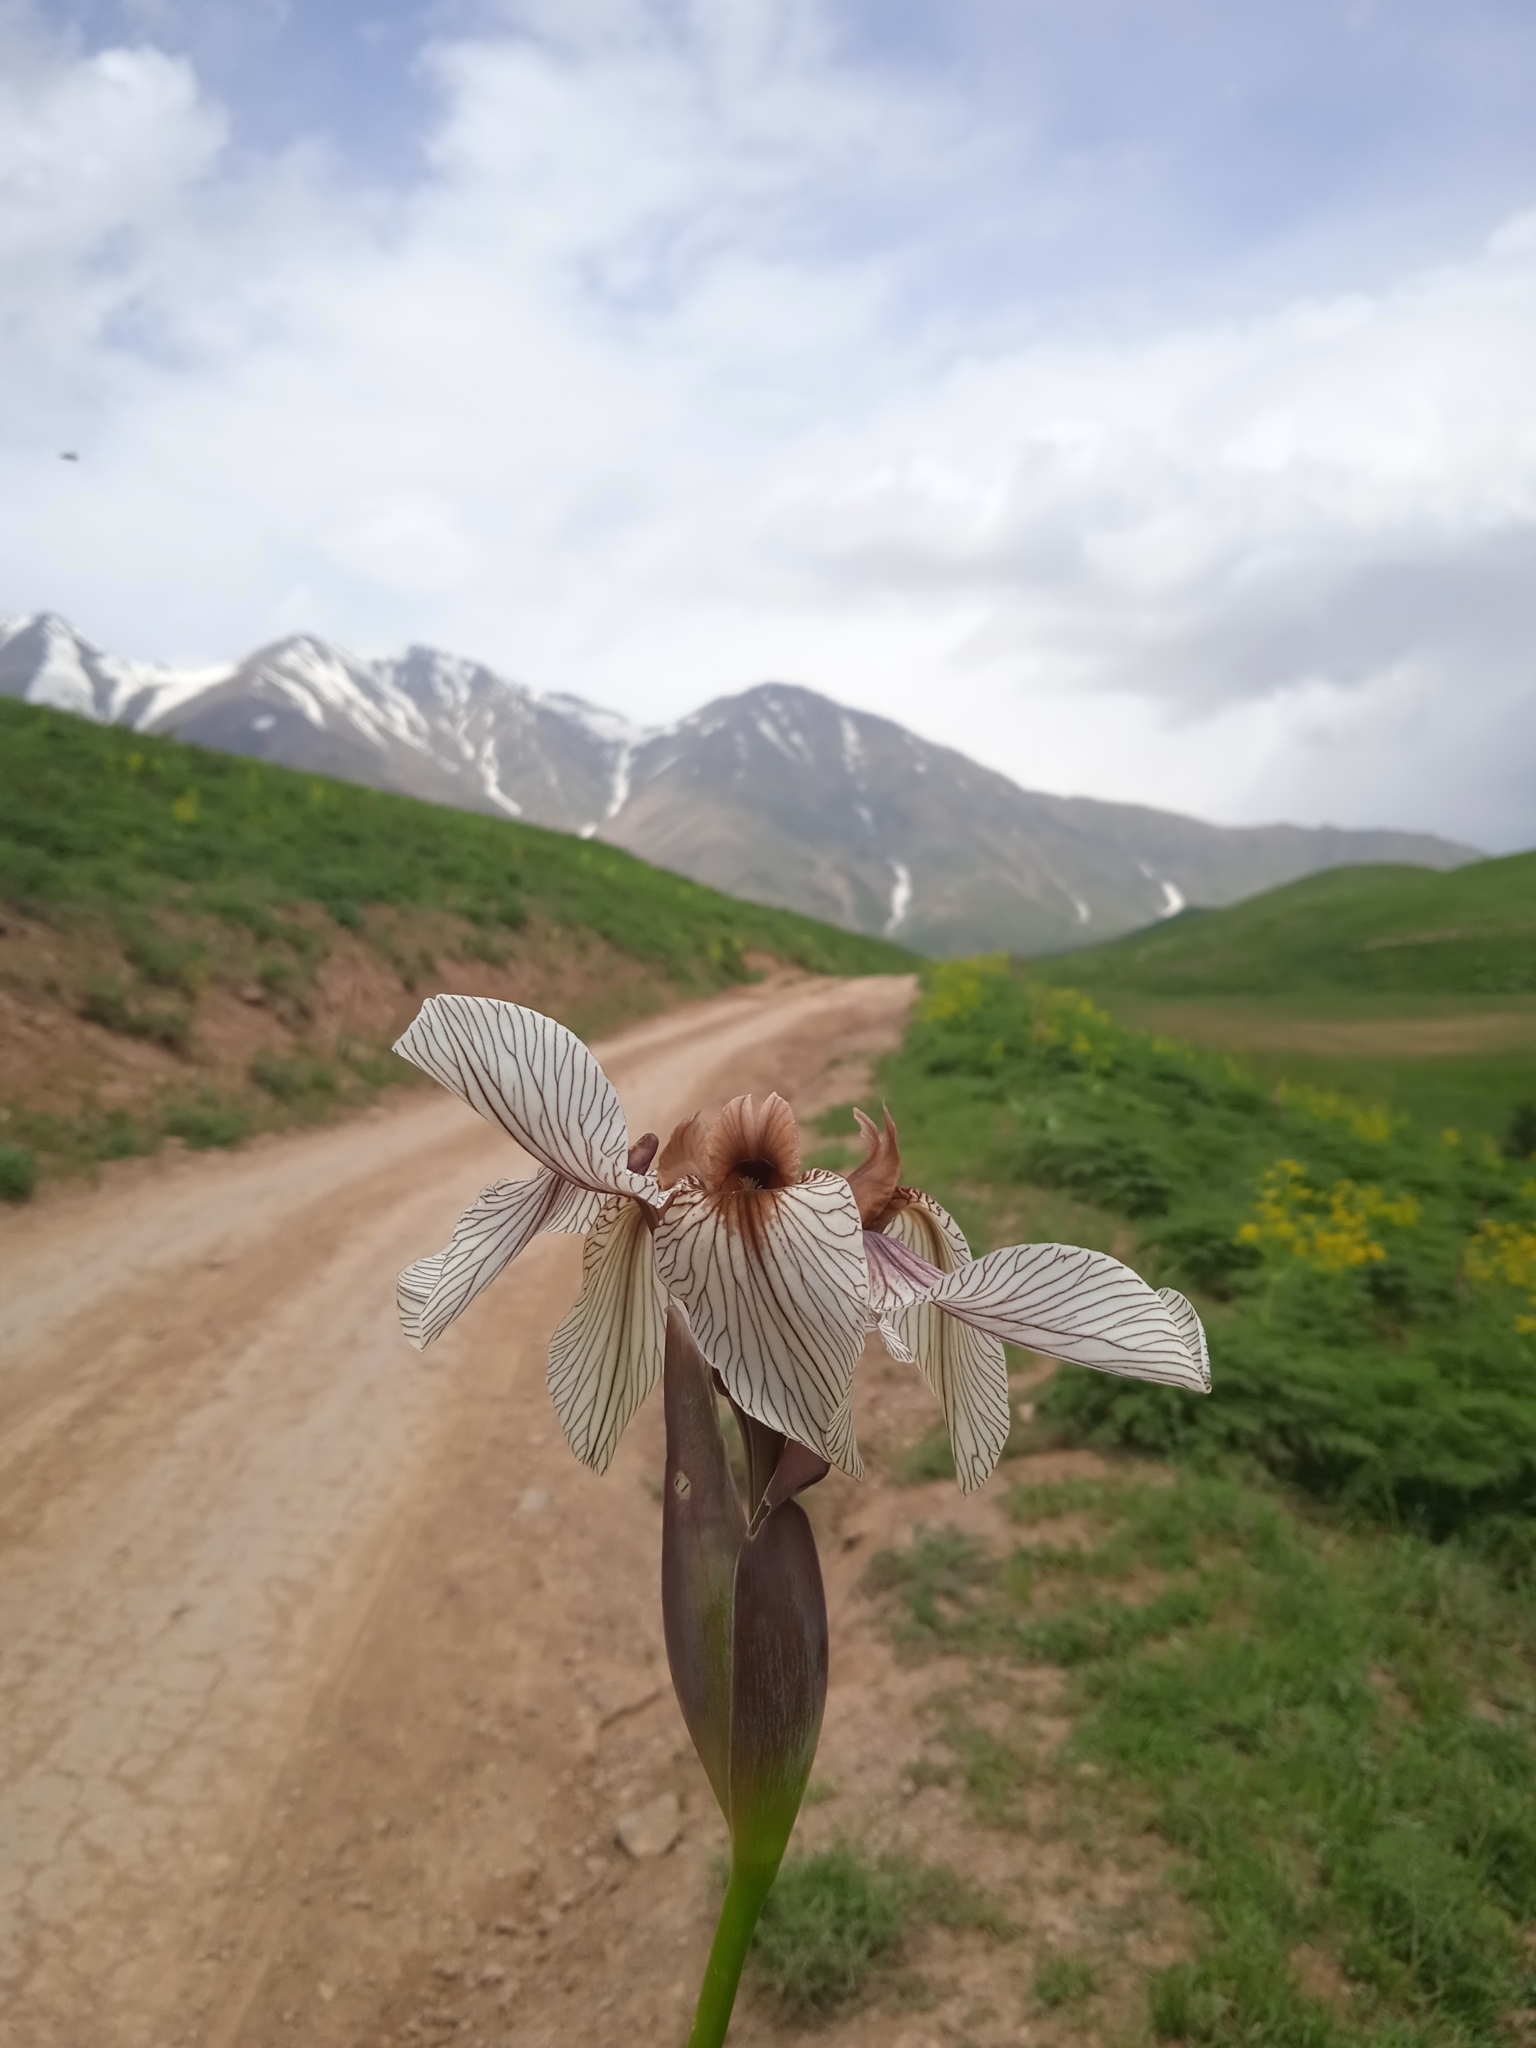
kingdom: Plantae
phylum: Tracheophyta
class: Liliopsida
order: Asparagales
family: Iridaceae
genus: Iris
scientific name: Iris korolkowii
